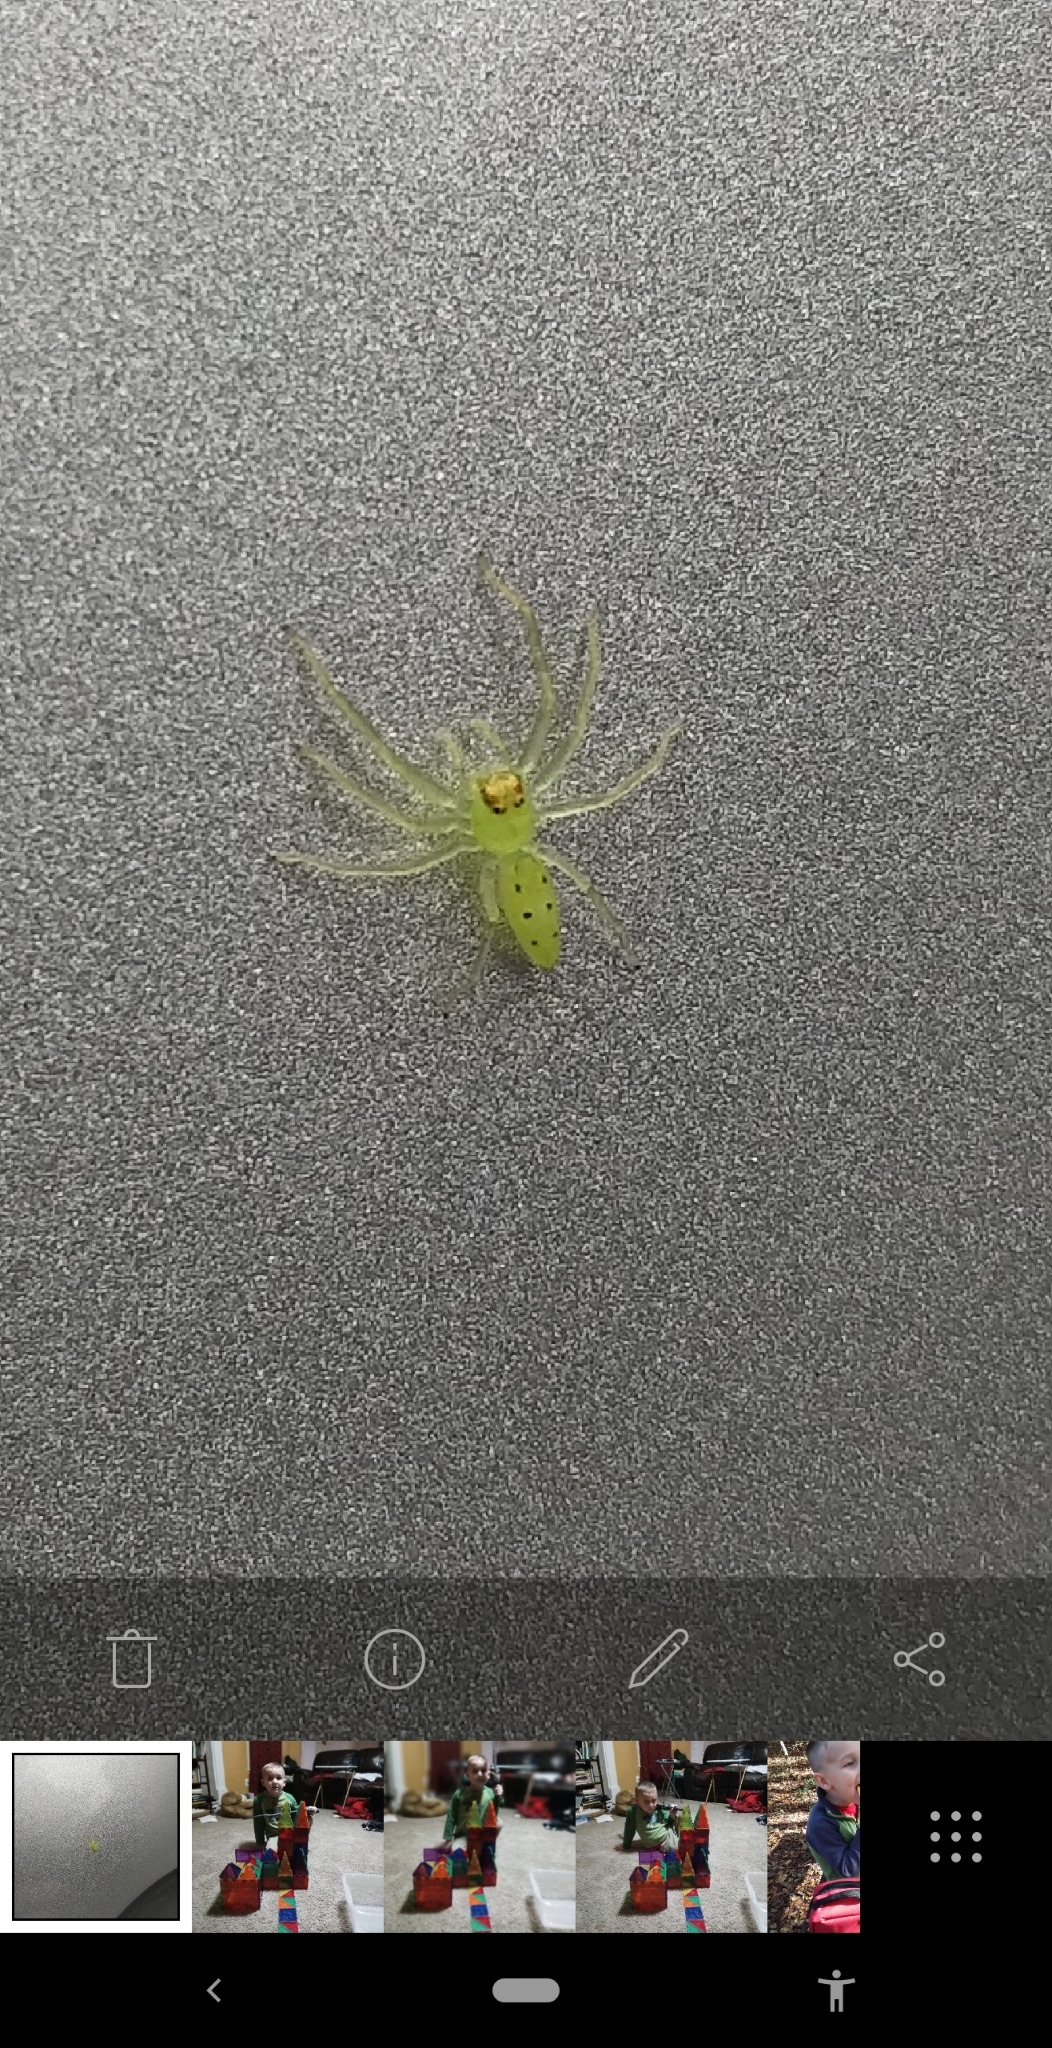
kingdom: Animalia
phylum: Arthropoda
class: Arachnida
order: Araneae
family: Salticidae
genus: Lyssomanes
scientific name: Lyssomanes viridis
